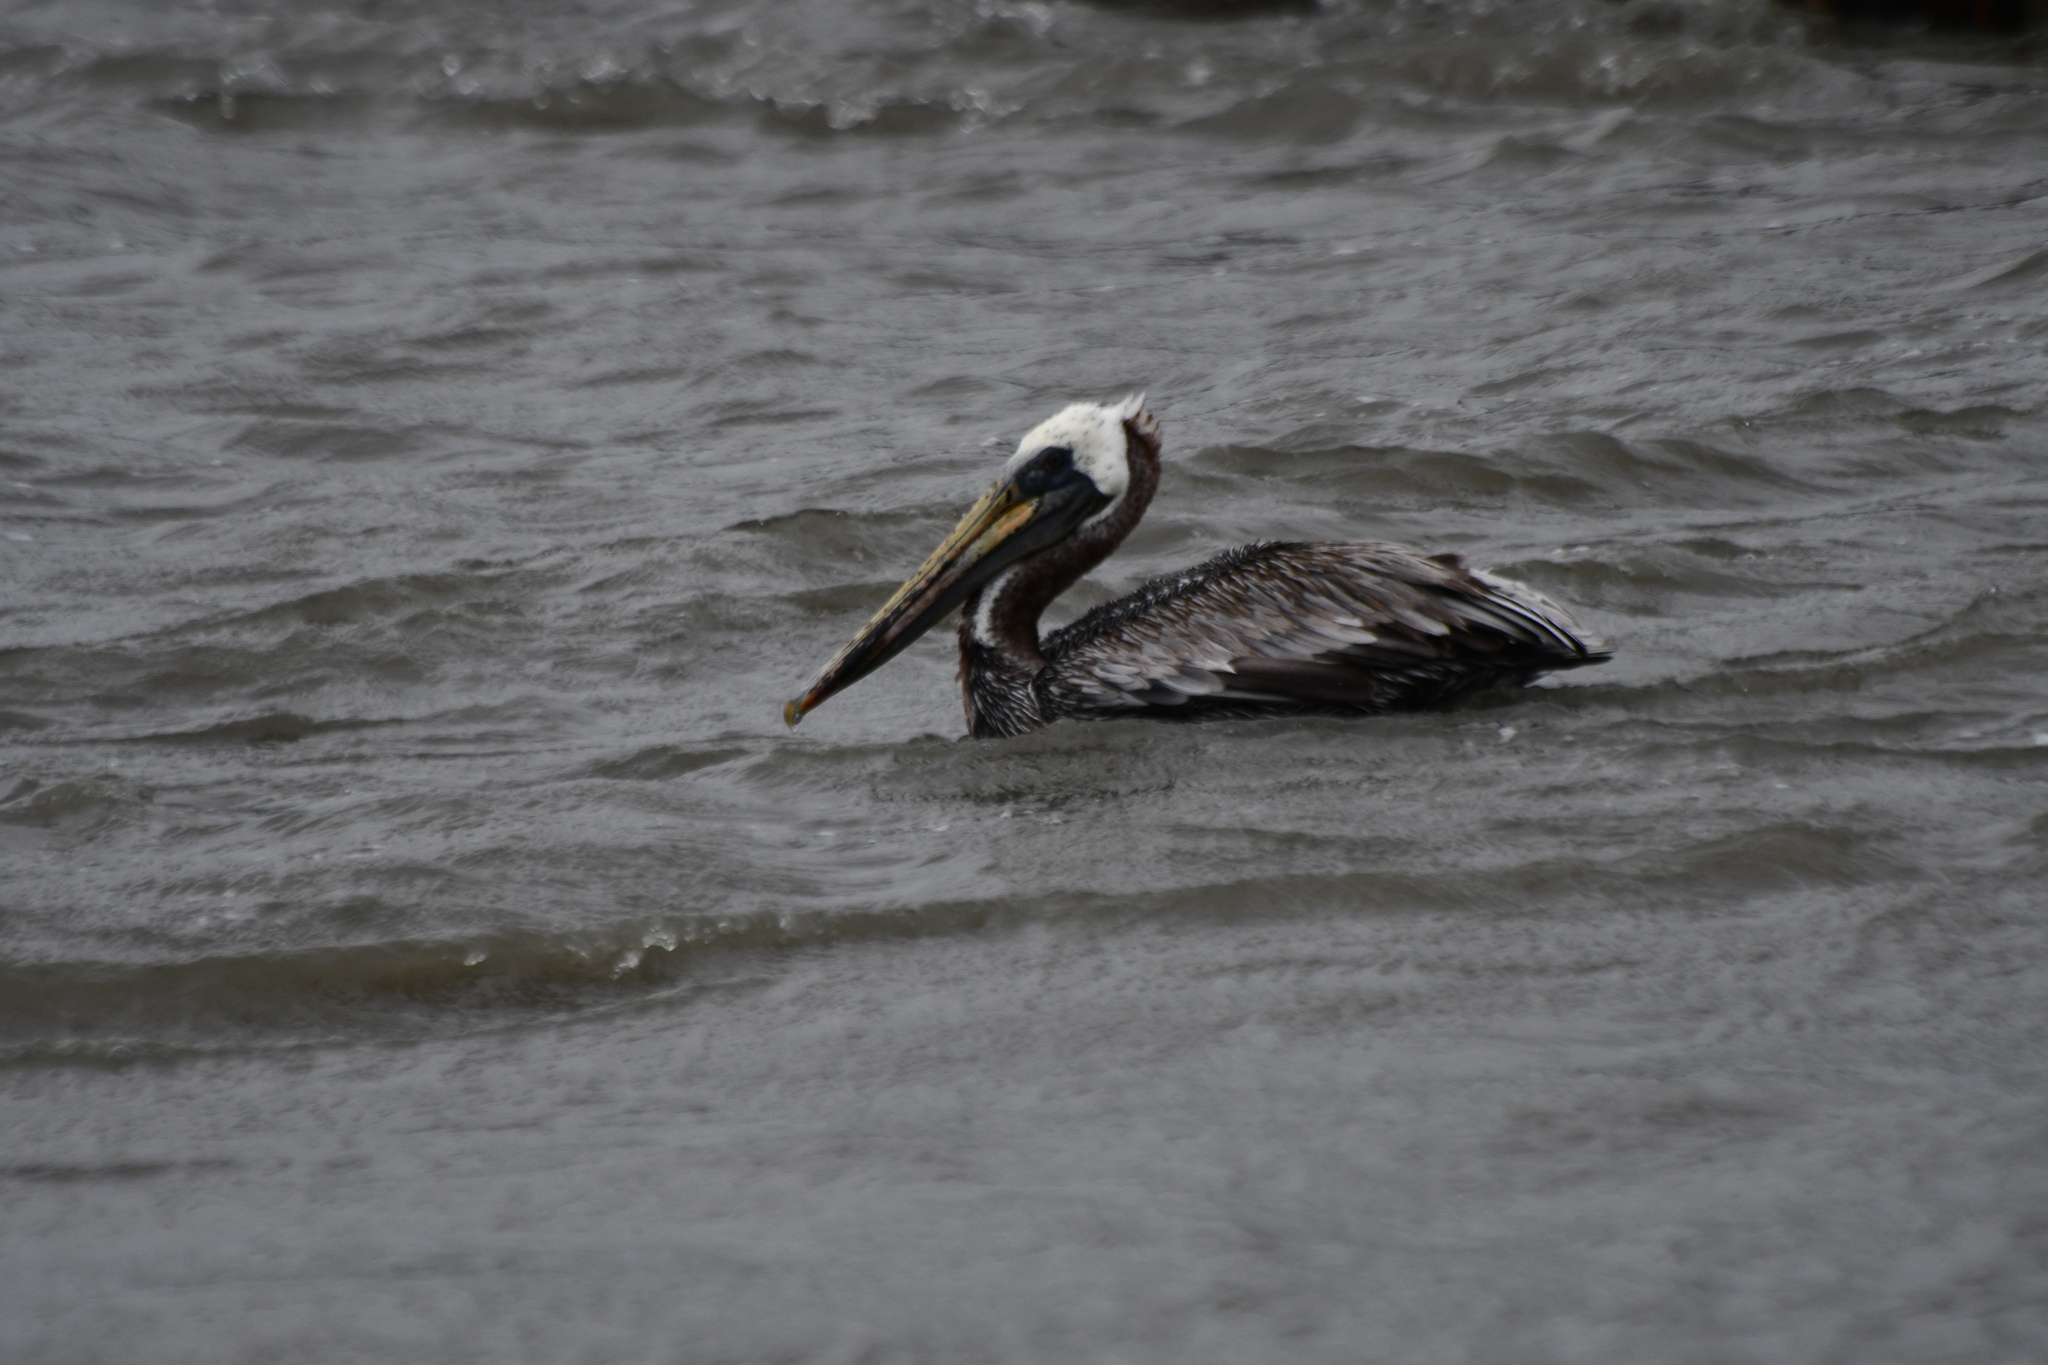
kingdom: Animalia
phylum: Chordata
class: Aves
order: Pelecaniformes
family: Pelecanidae
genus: Pelecanus
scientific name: Pelecanus occidentalis
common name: Brown pelican
